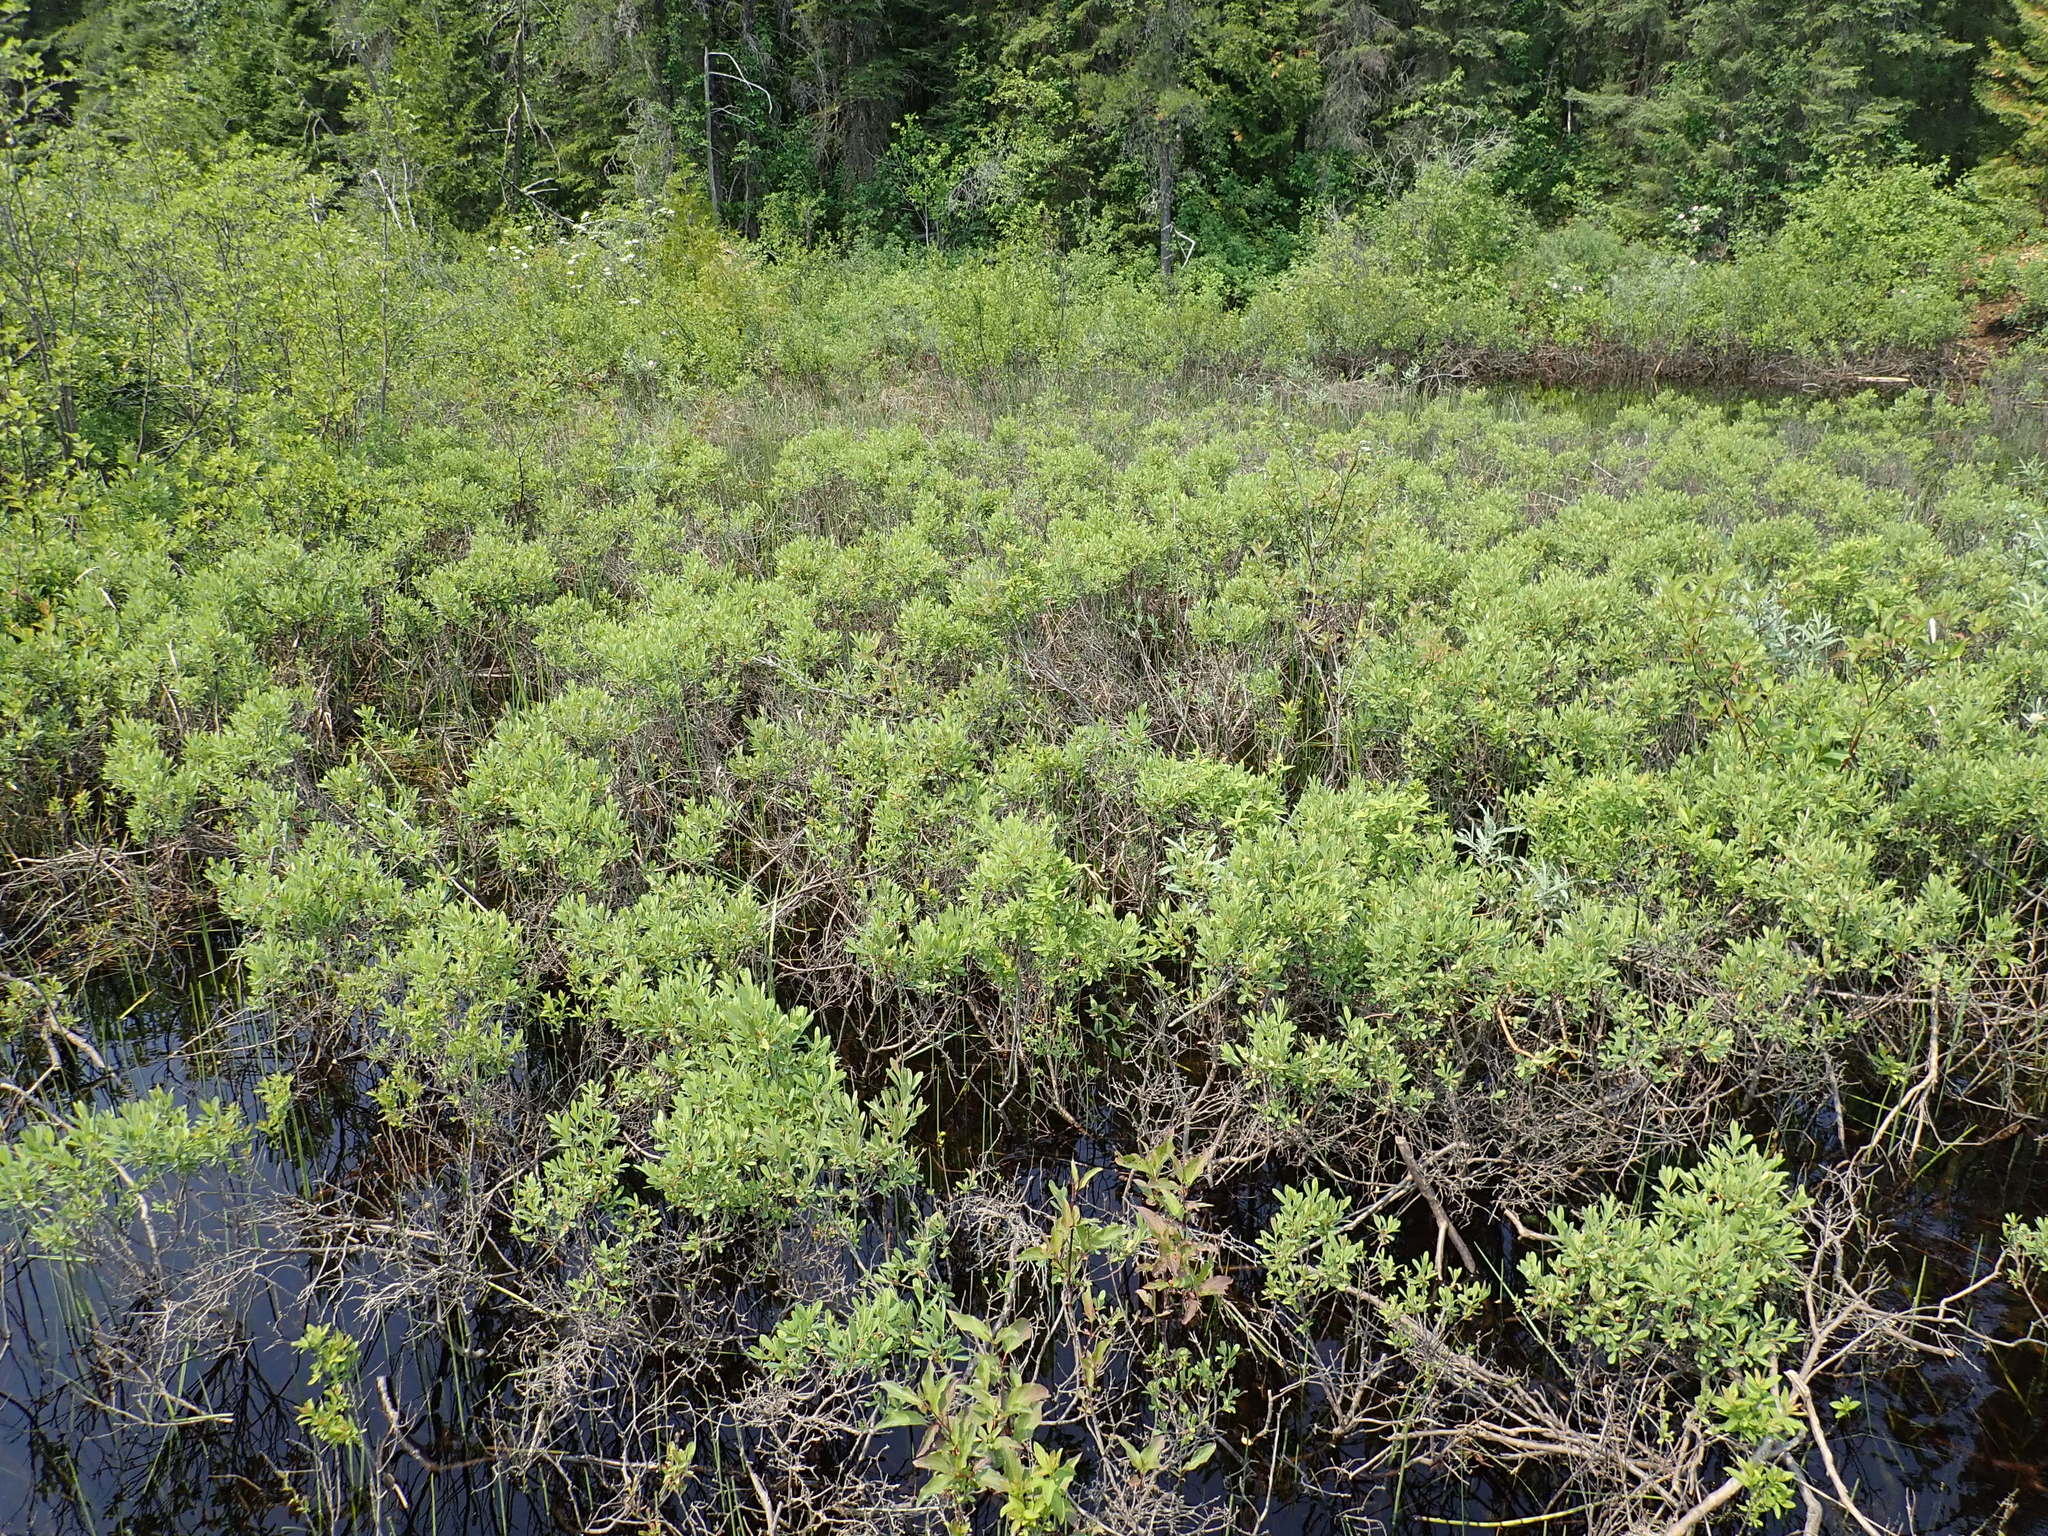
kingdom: Plantae
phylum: Tracheophyta
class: Magnoliopsida
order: Fagales
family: Myricaceae
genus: Myrica
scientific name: Myrica gale
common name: Sweet gale
